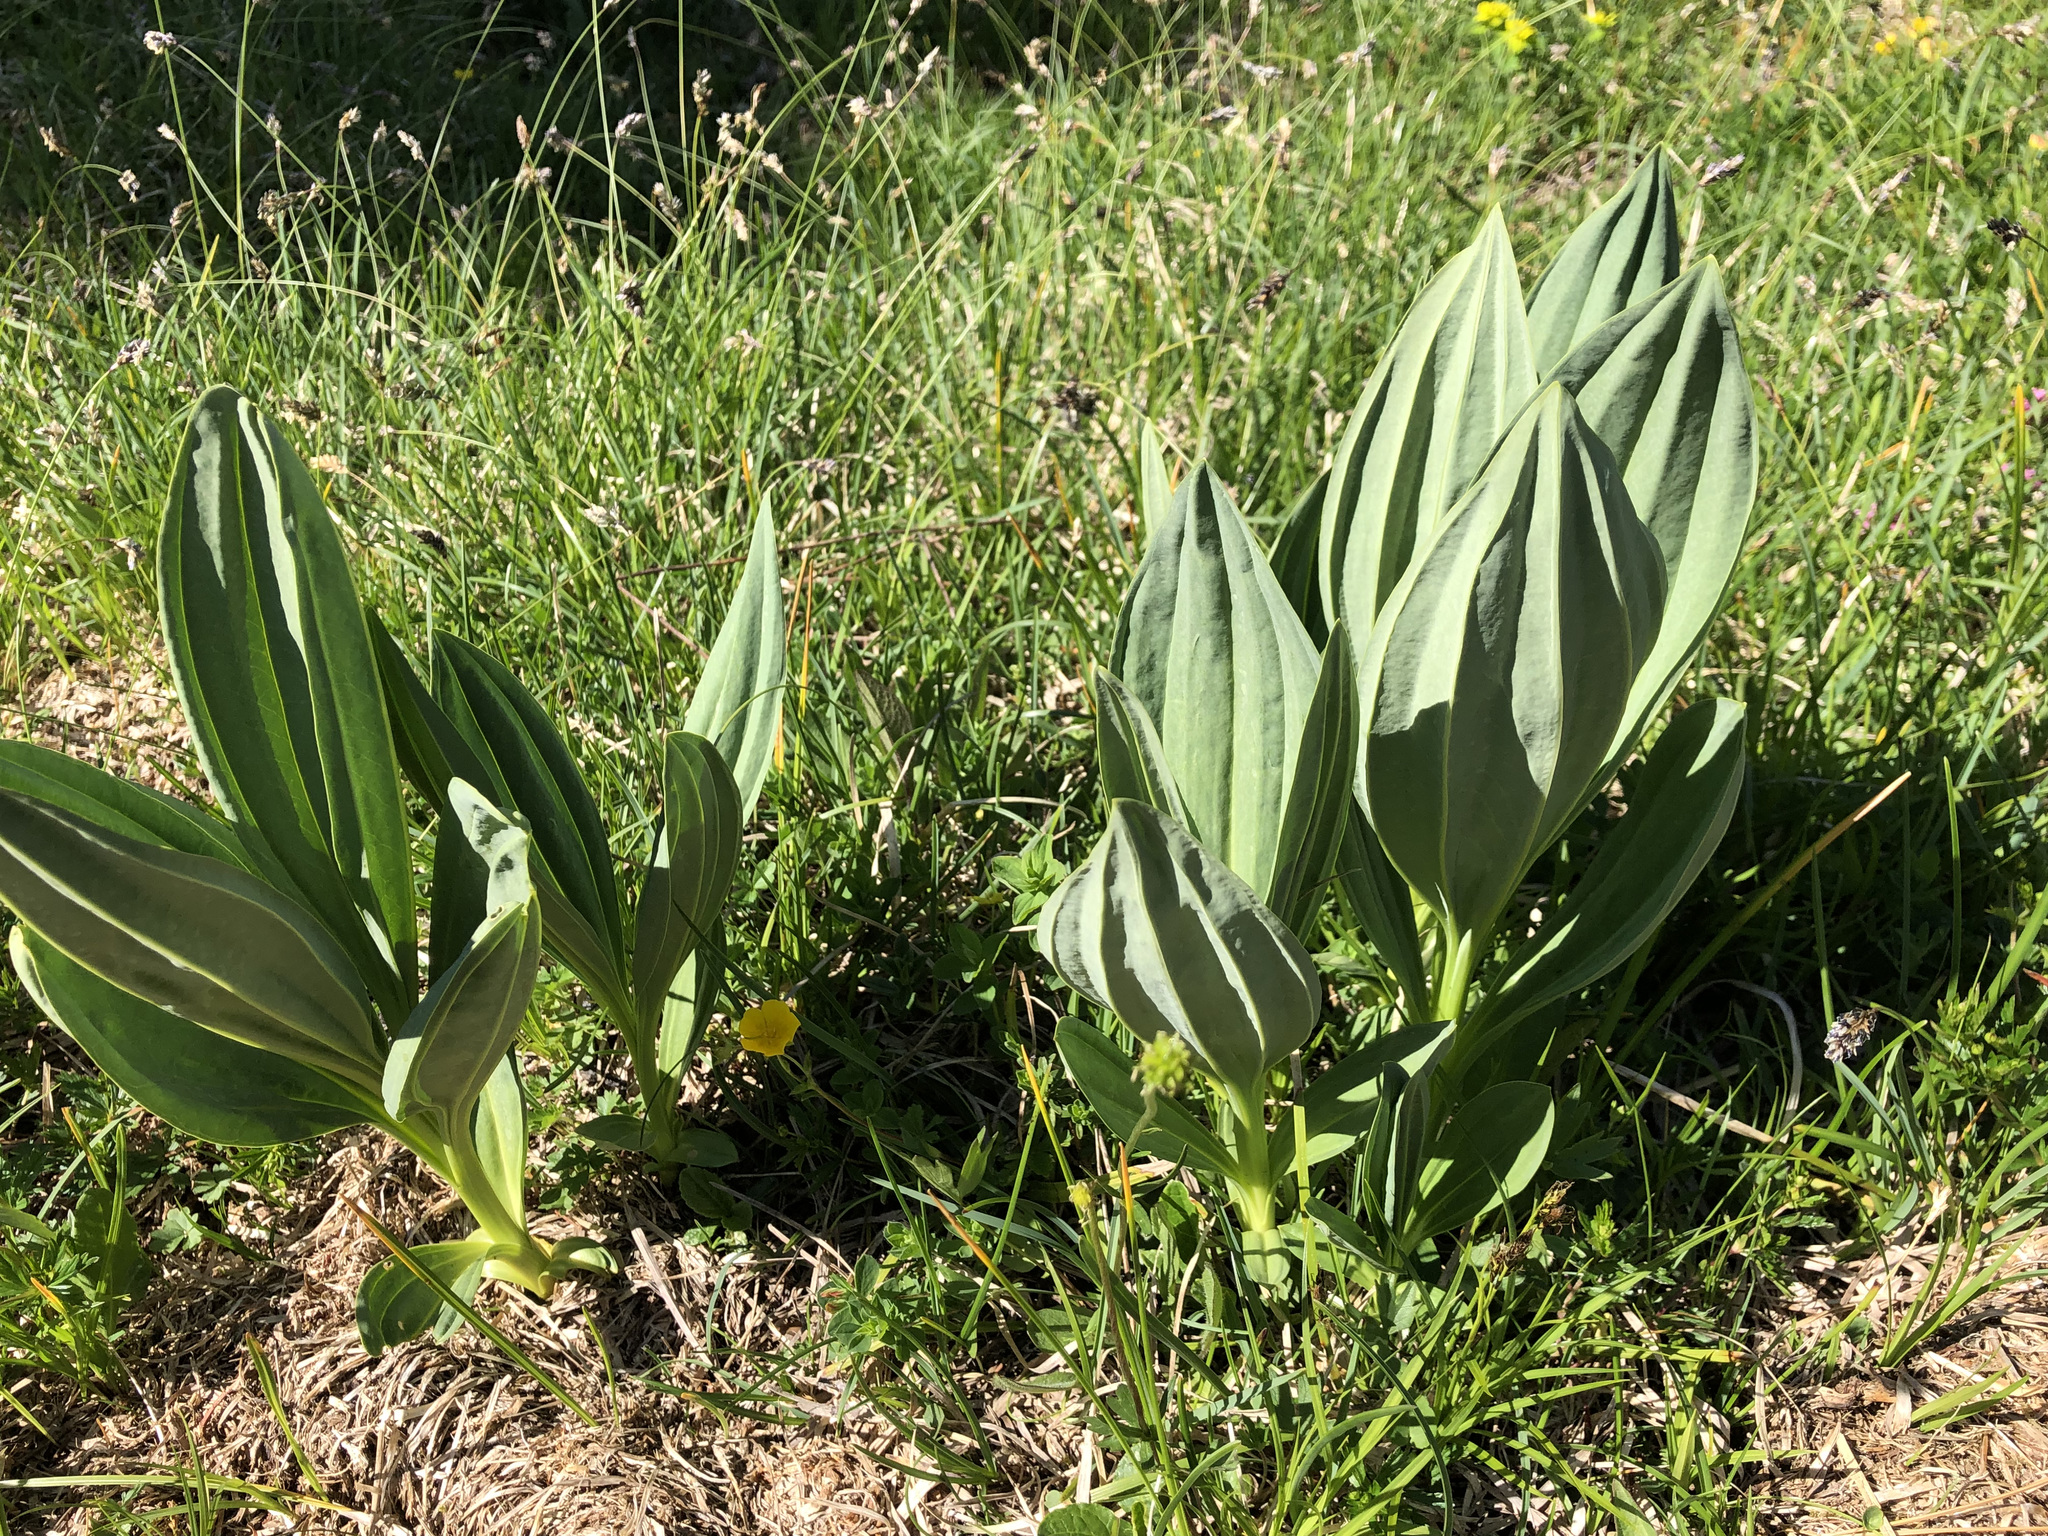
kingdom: Plantae
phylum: Tracheophyta
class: Magnoliopsida
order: Gentianales
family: Gentianaceae
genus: Gentiana
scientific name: Gentiana lutea
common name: Great yellow gentian
